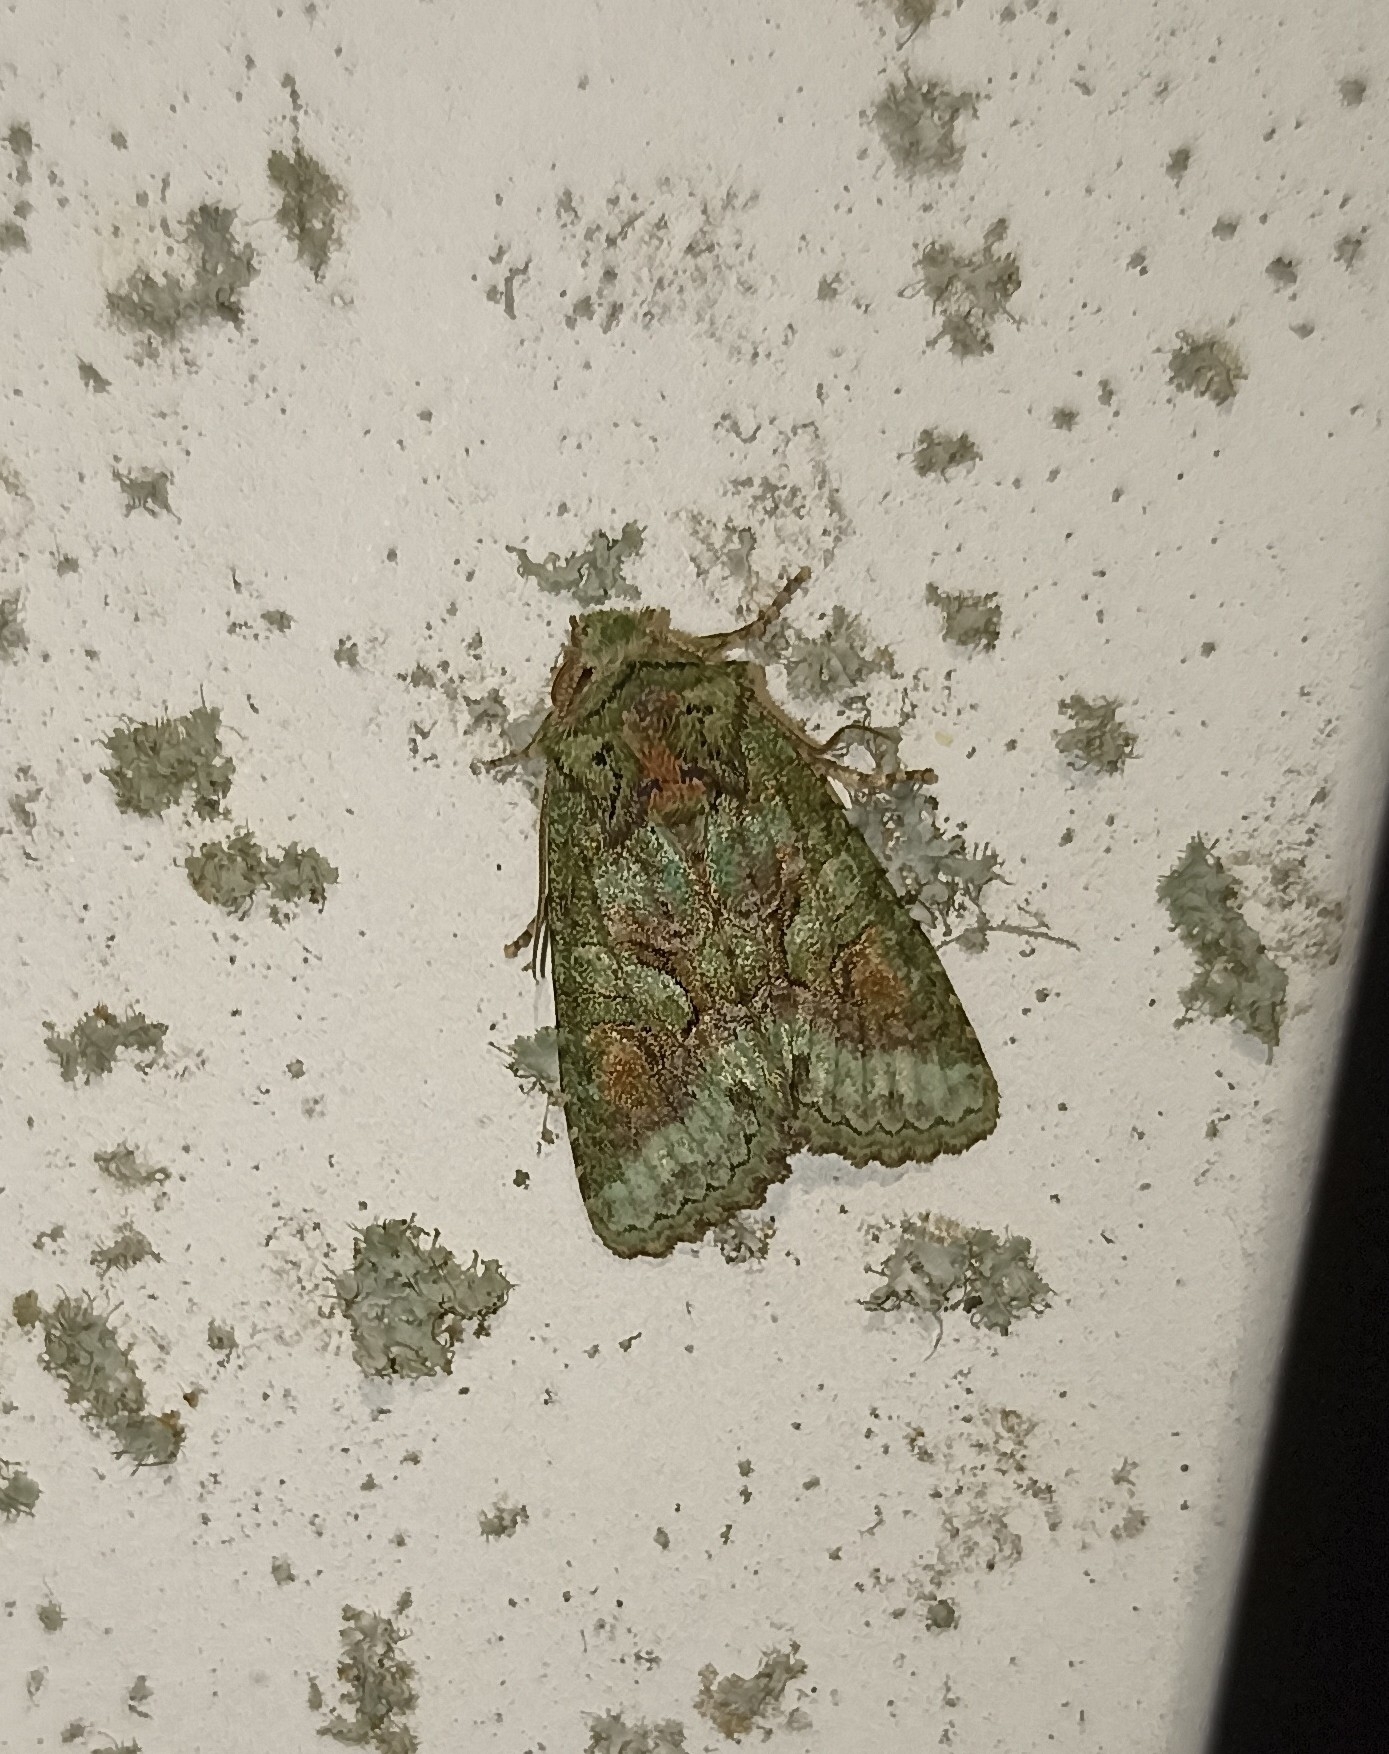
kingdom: Animalia
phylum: Arthropoda
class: Insecta
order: Lepidoptera
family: Noctuidae
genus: Allophyes
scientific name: Allophyes oxyacanthae
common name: Green-brindled crescent
